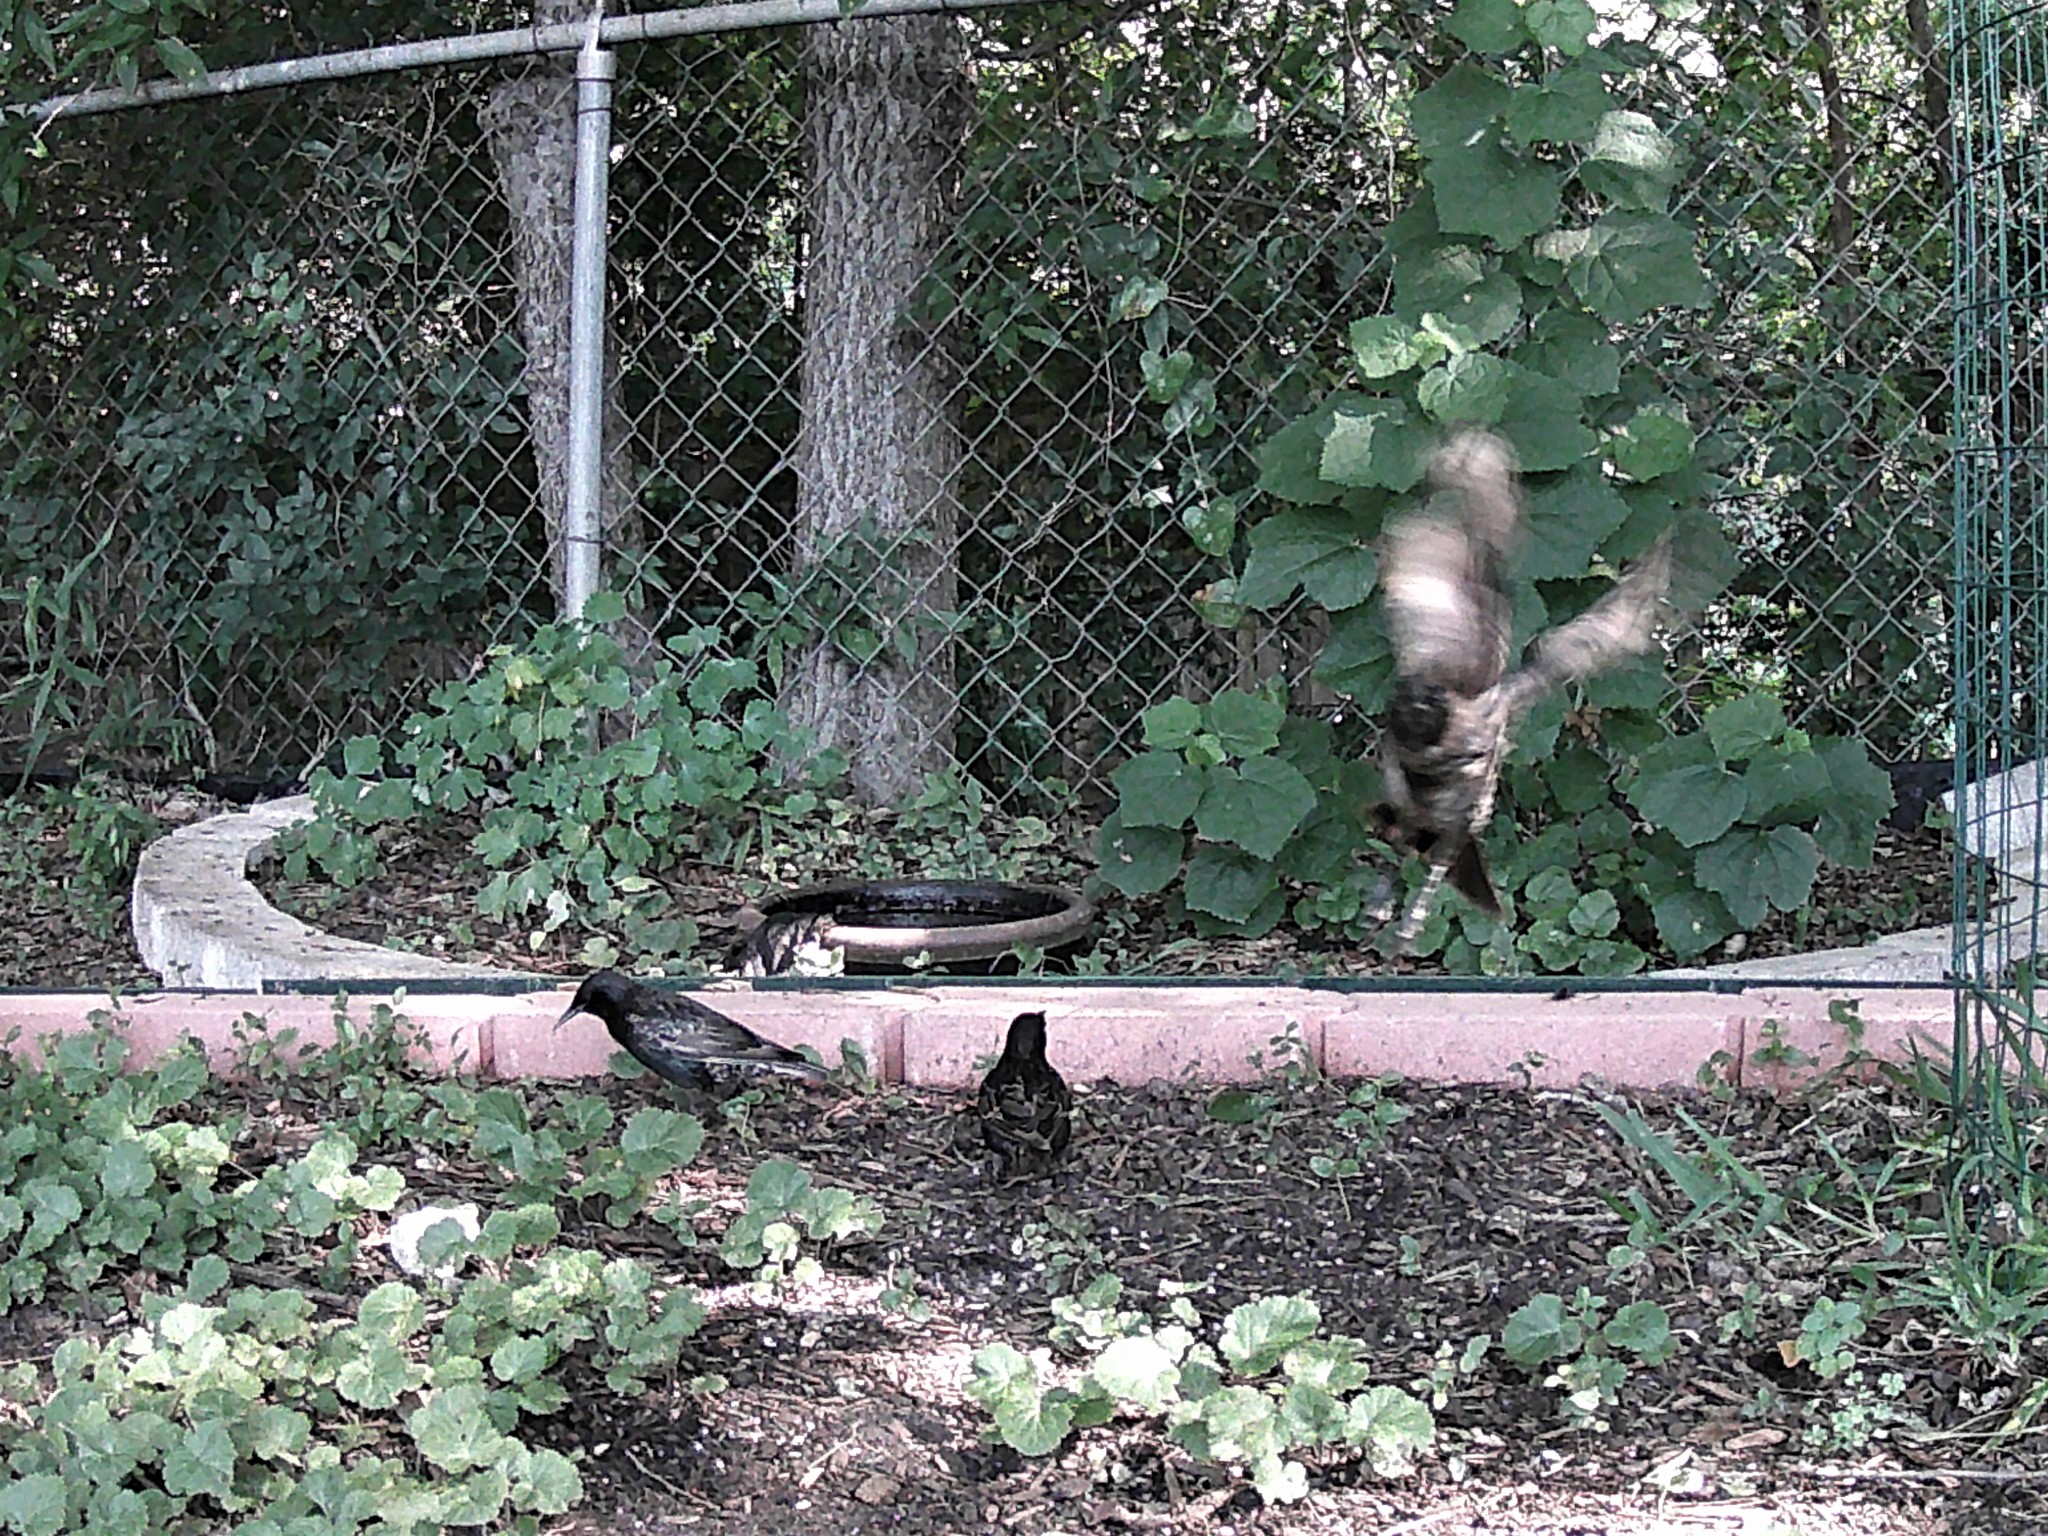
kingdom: Animalia
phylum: Chordata
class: Aves
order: Passeriformes
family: Sturnidae
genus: Sturnus
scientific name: Sturnus vulgaris
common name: Common starling
